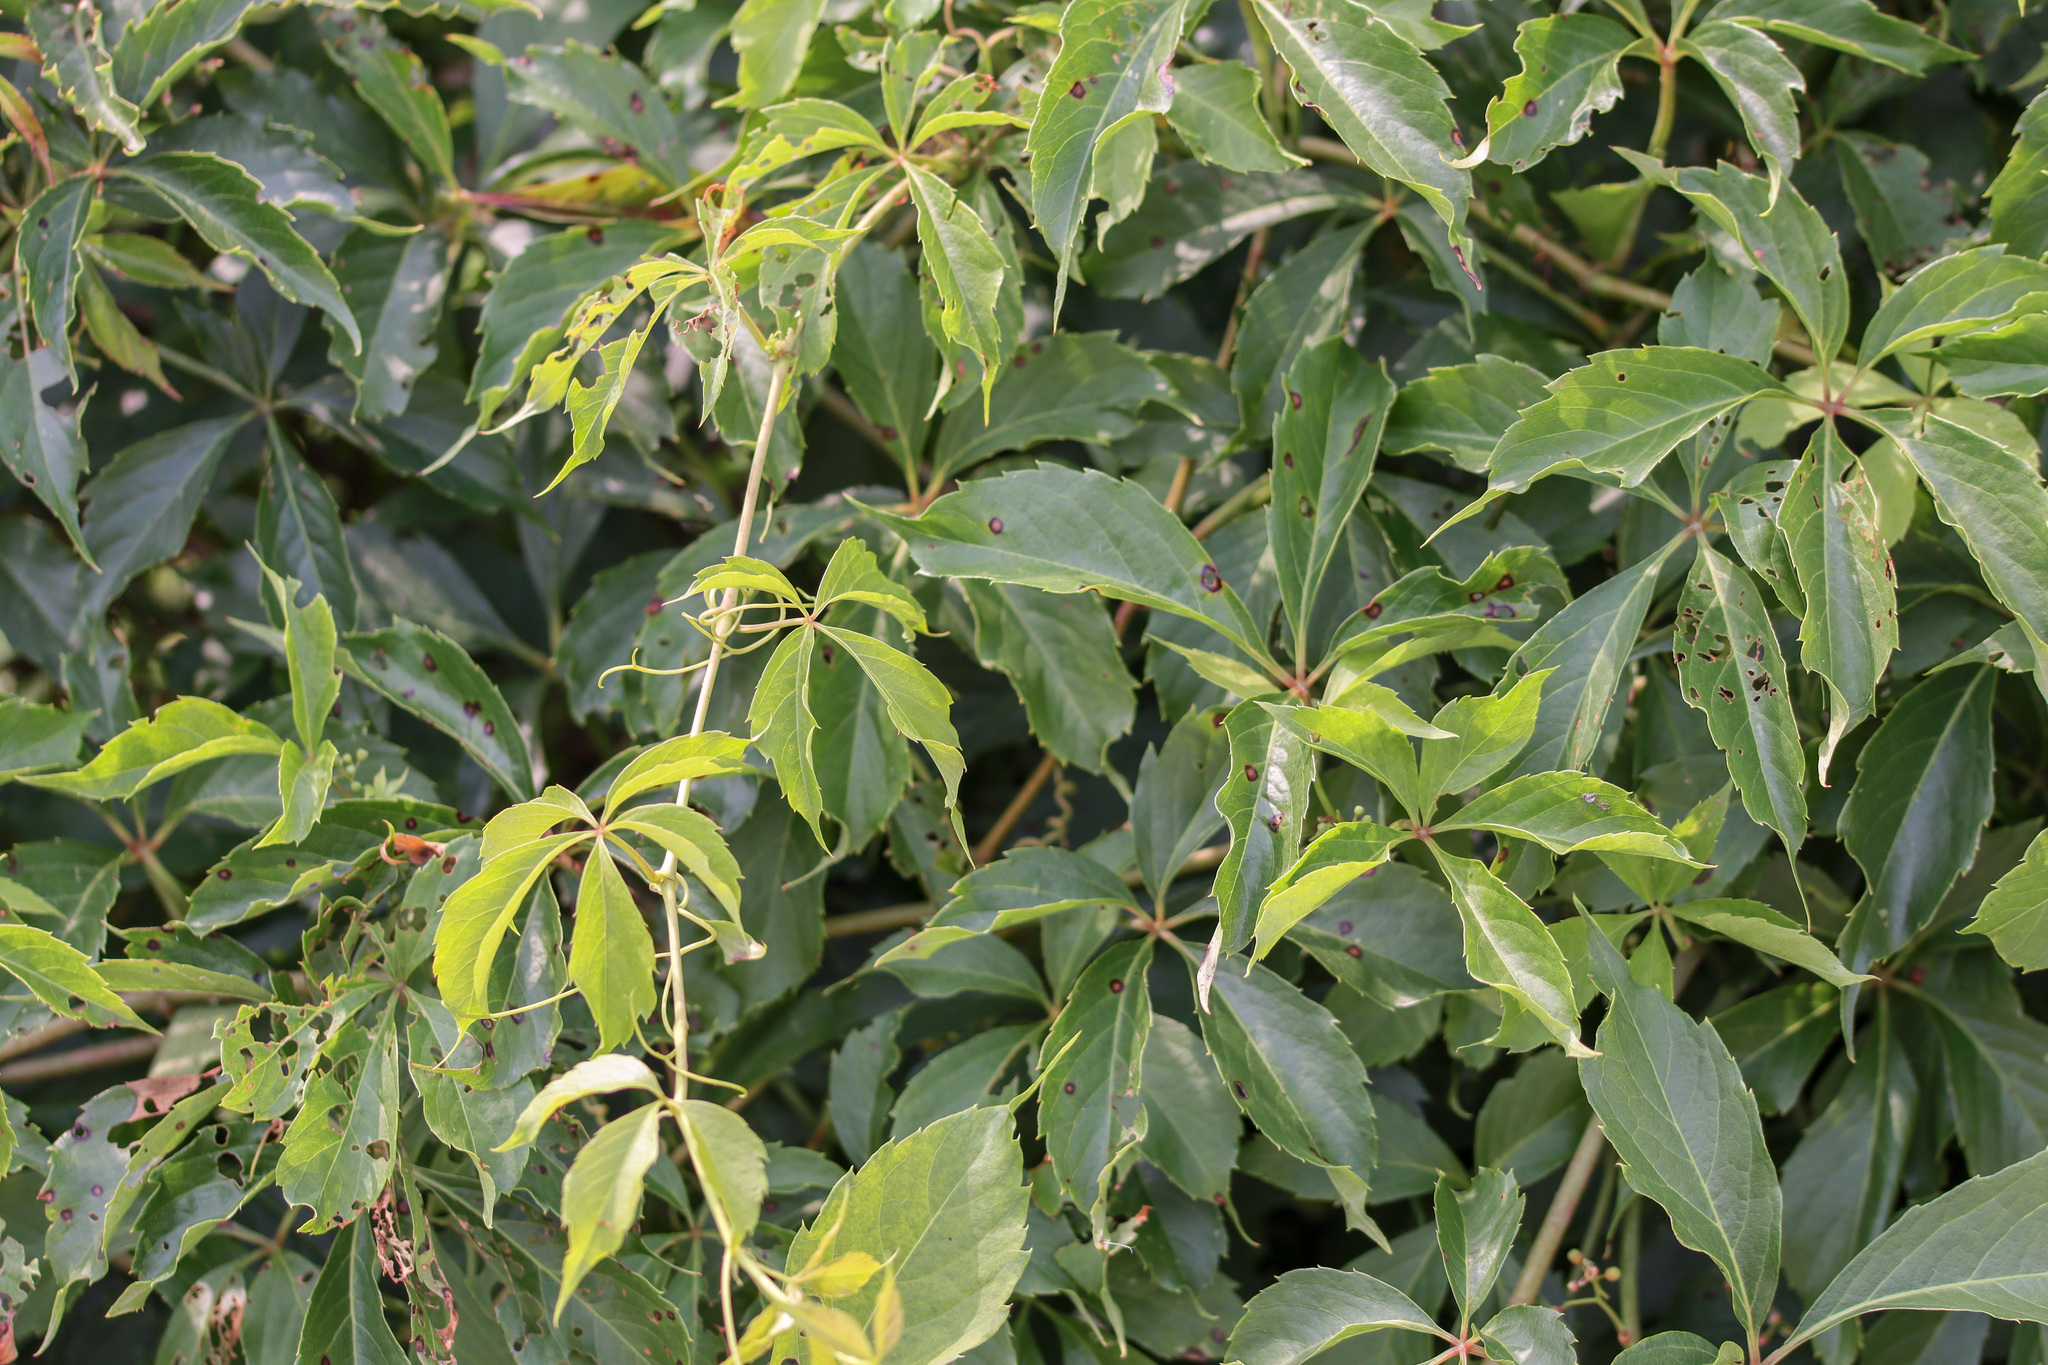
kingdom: Plantae
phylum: Tracheophyta
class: Magnoliopsida
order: Vitales
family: Vitaceae
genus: Parthenocissus
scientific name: Parthenocissus inserta
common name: False virginia-creeper
